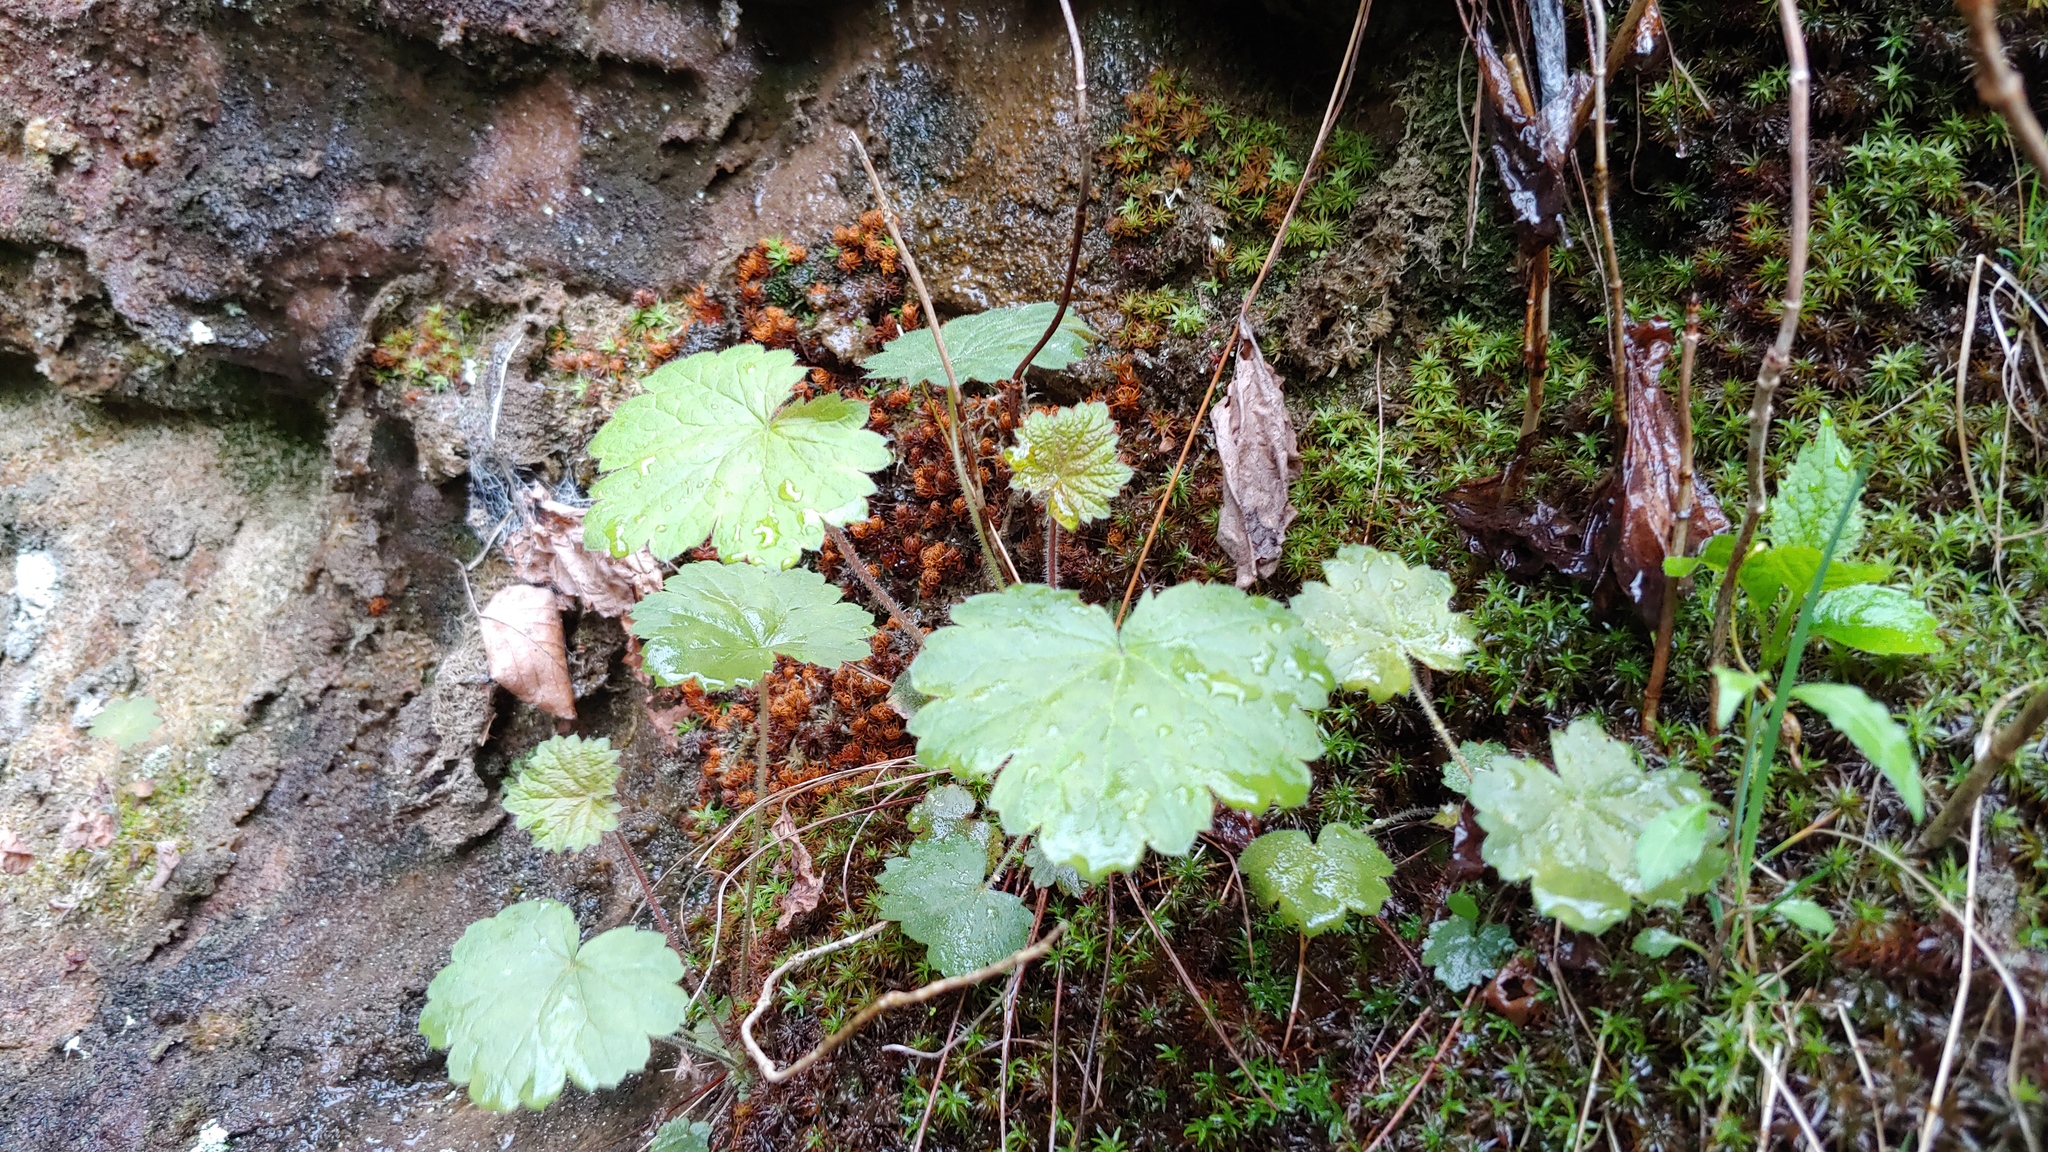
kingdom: Plantae
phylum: Tracheophyta
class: Magnoliopsida
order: Saxifragales
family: Saxifragaceae
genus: Heuchera
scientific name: Heuchera missouriensis
